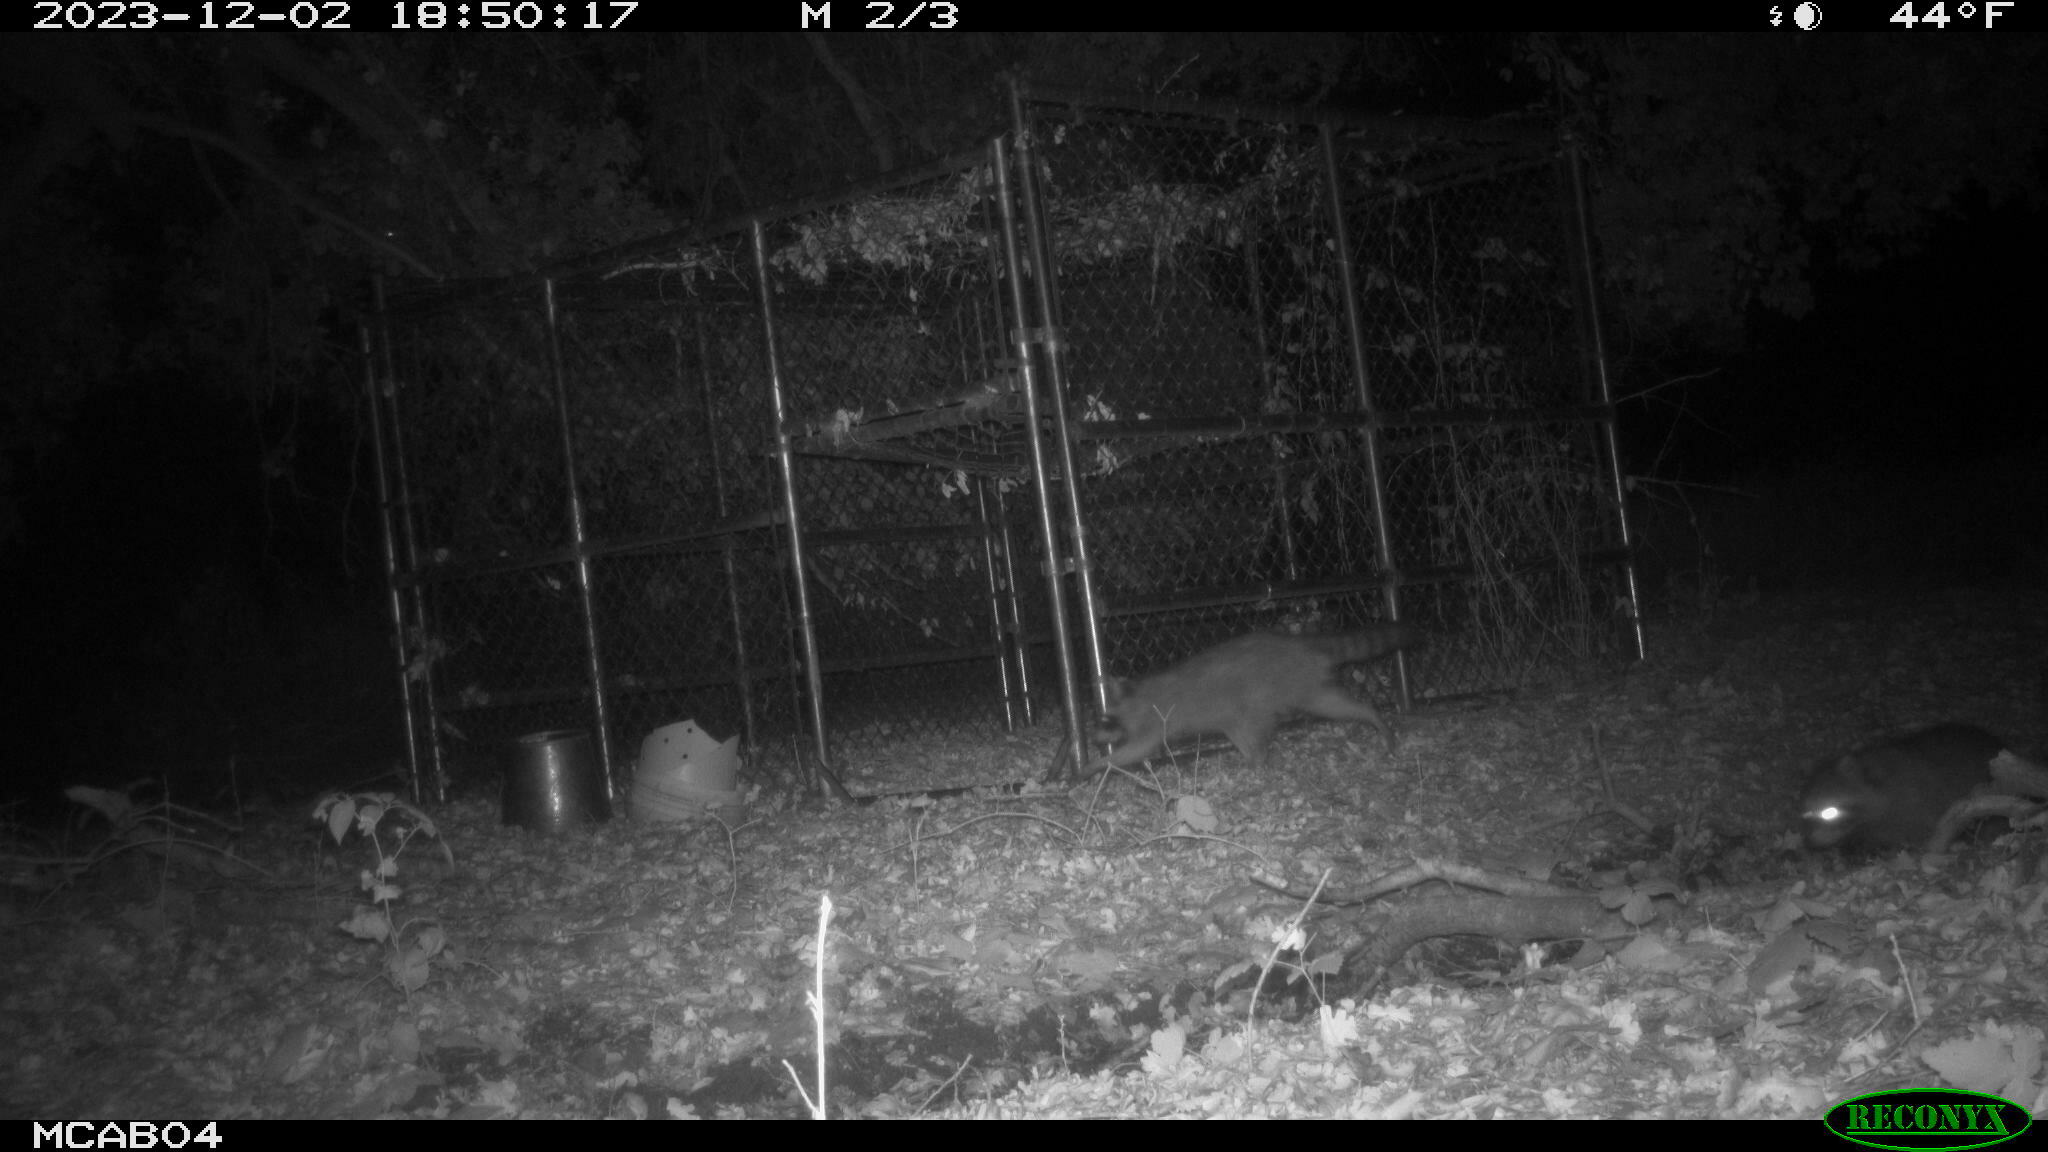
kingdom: Animalia
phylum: Chordata
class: Mammalia
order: Carnivora
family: Procyonidae
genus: Procyon
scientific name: Procyon lotor
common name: Raccoon
